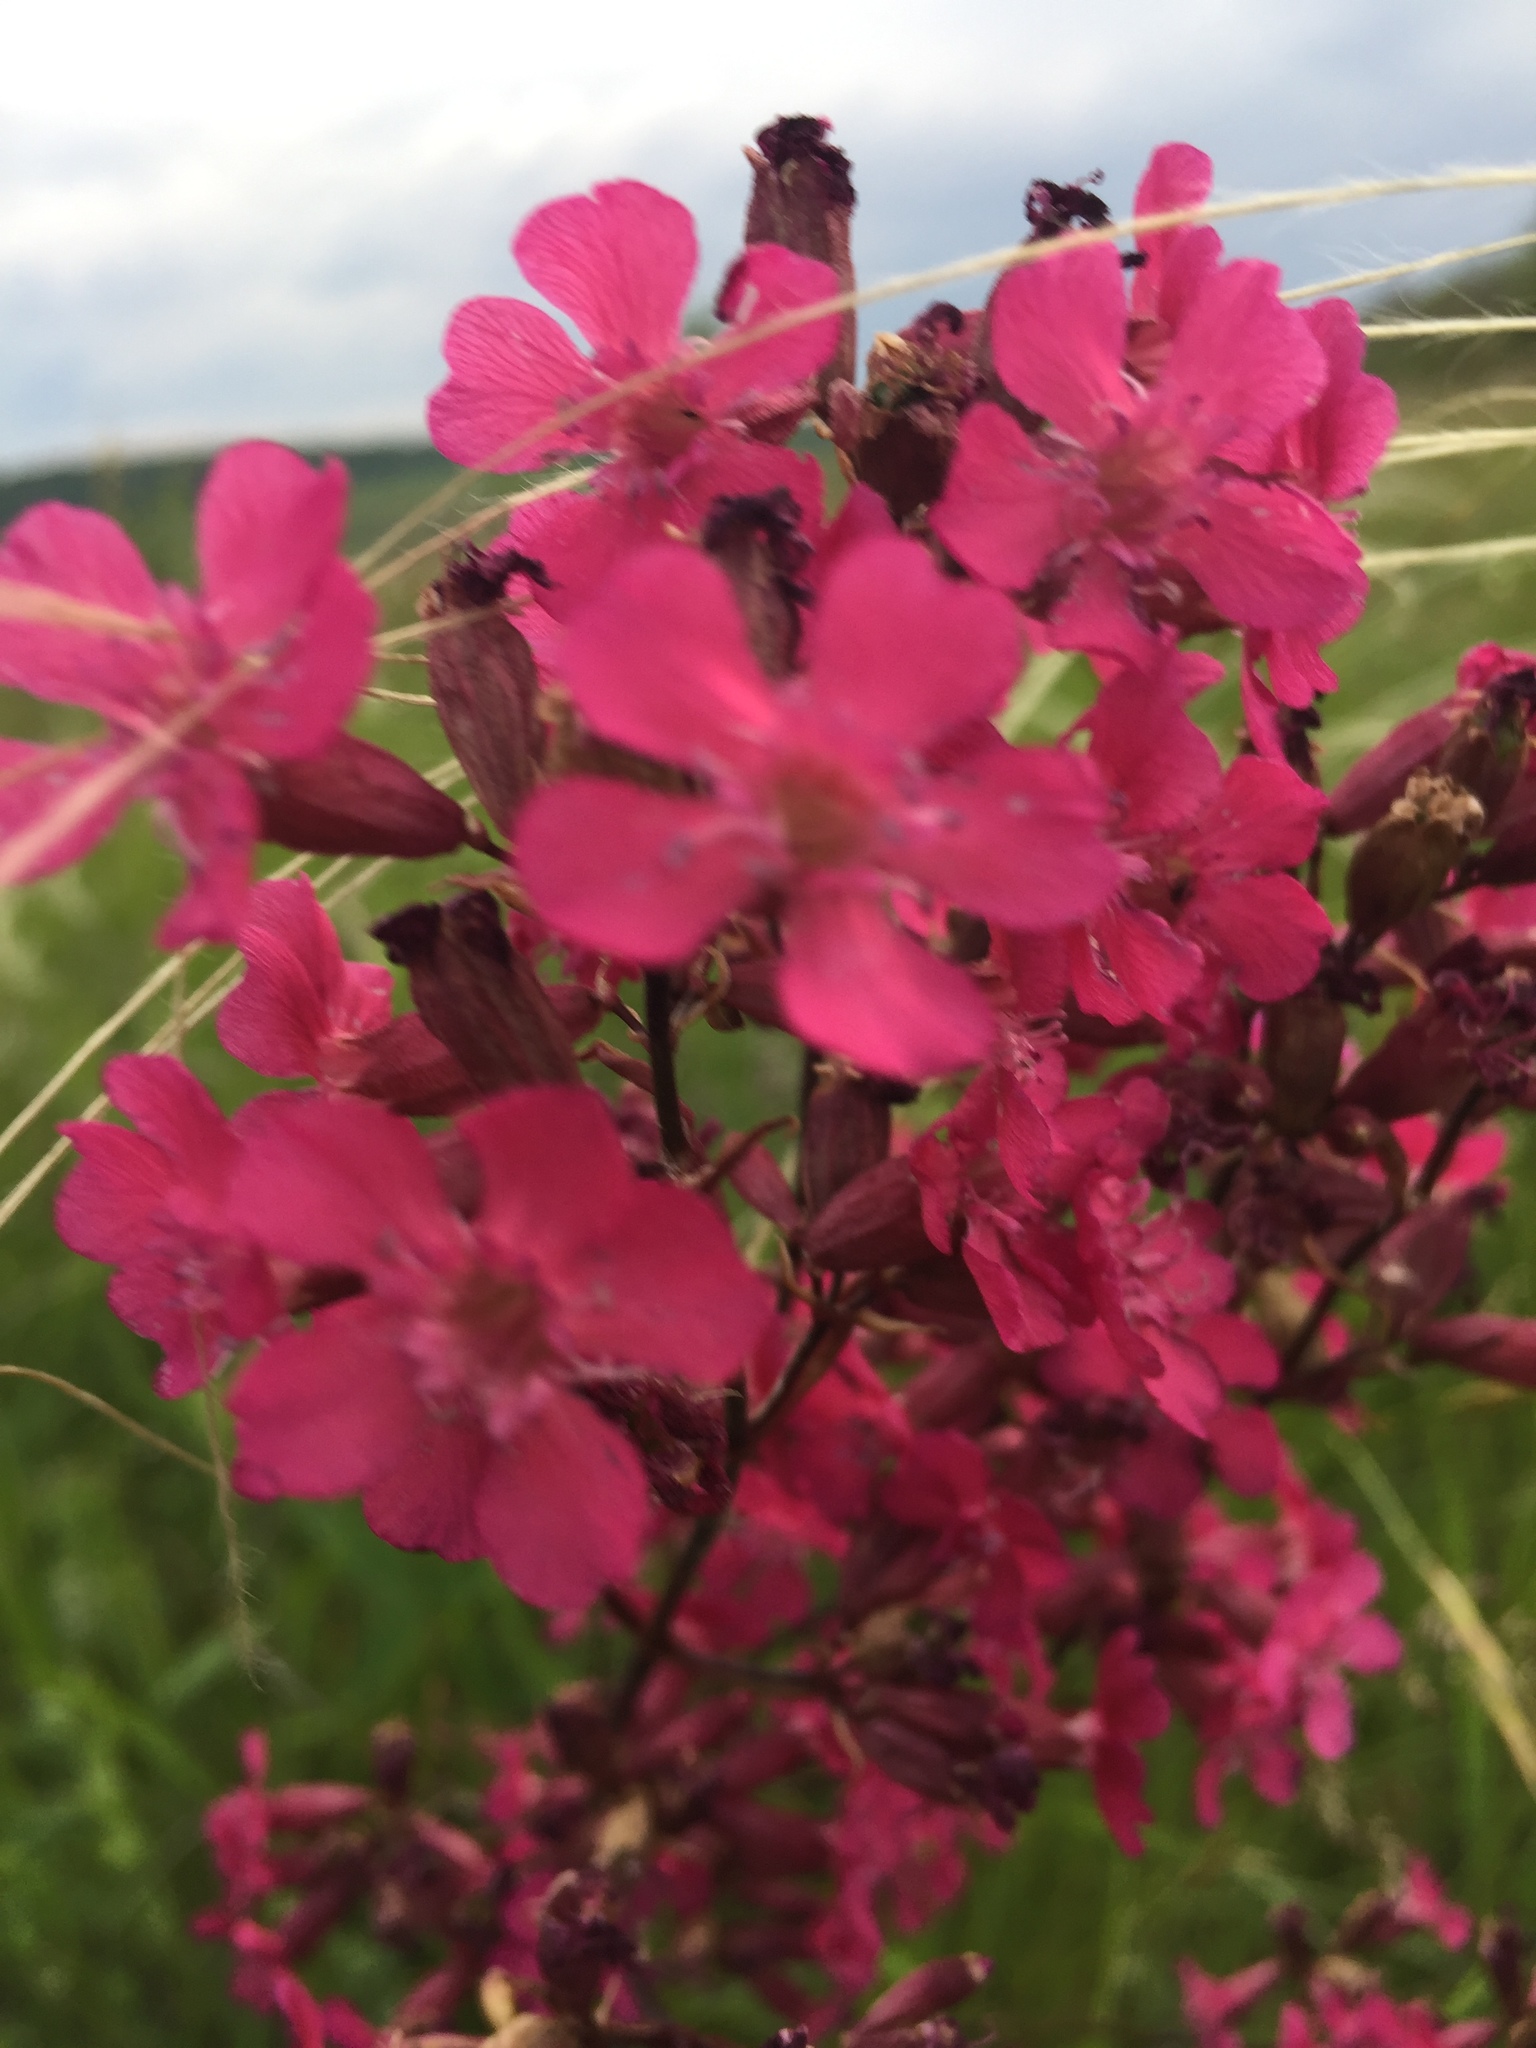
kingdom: Plantae
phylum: Tracheophyta
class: Magnoliopsida
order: Caryophyllales
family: Caryophyllaceae
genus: Viscaria
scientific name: Viscaria vulgaris
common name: Clammy campion
